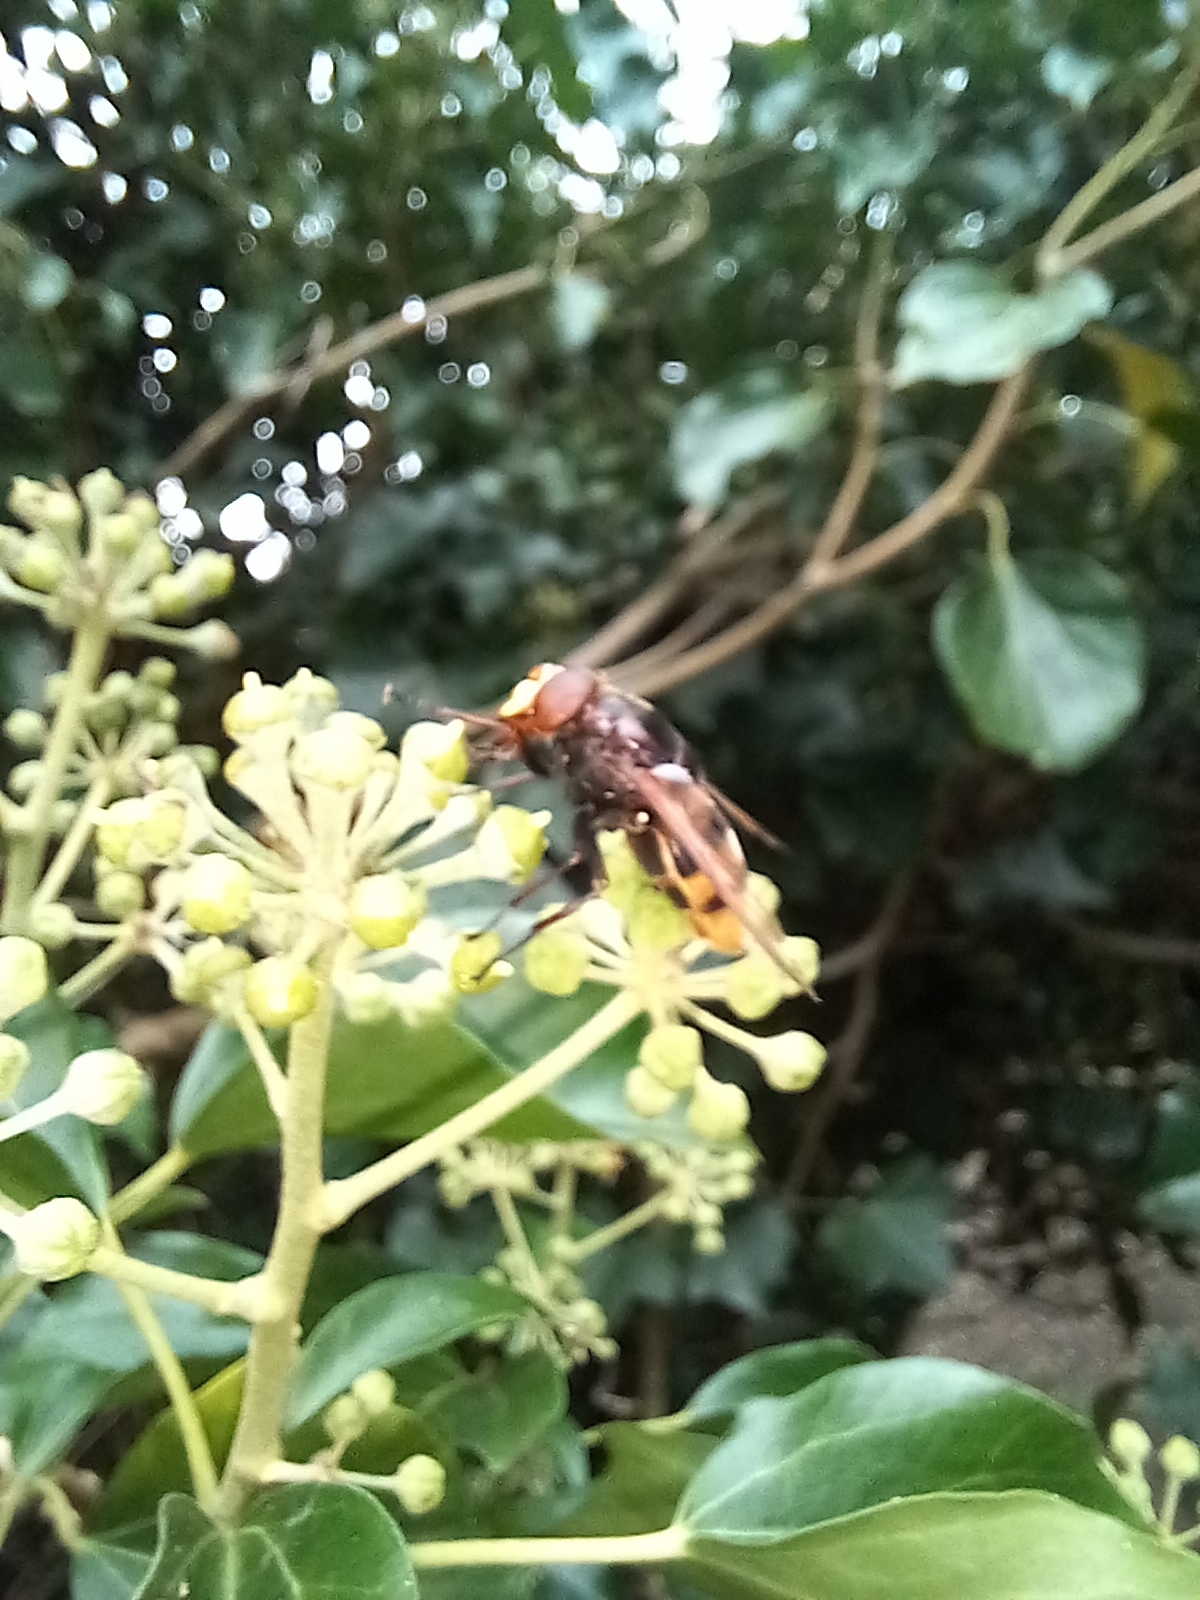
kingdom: Animalia
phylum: Arthropoda
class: Insecta
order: Diptera
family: Syrphidae
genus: Volucella
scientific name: Volucella zonaria
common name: Hornet hoverfly
